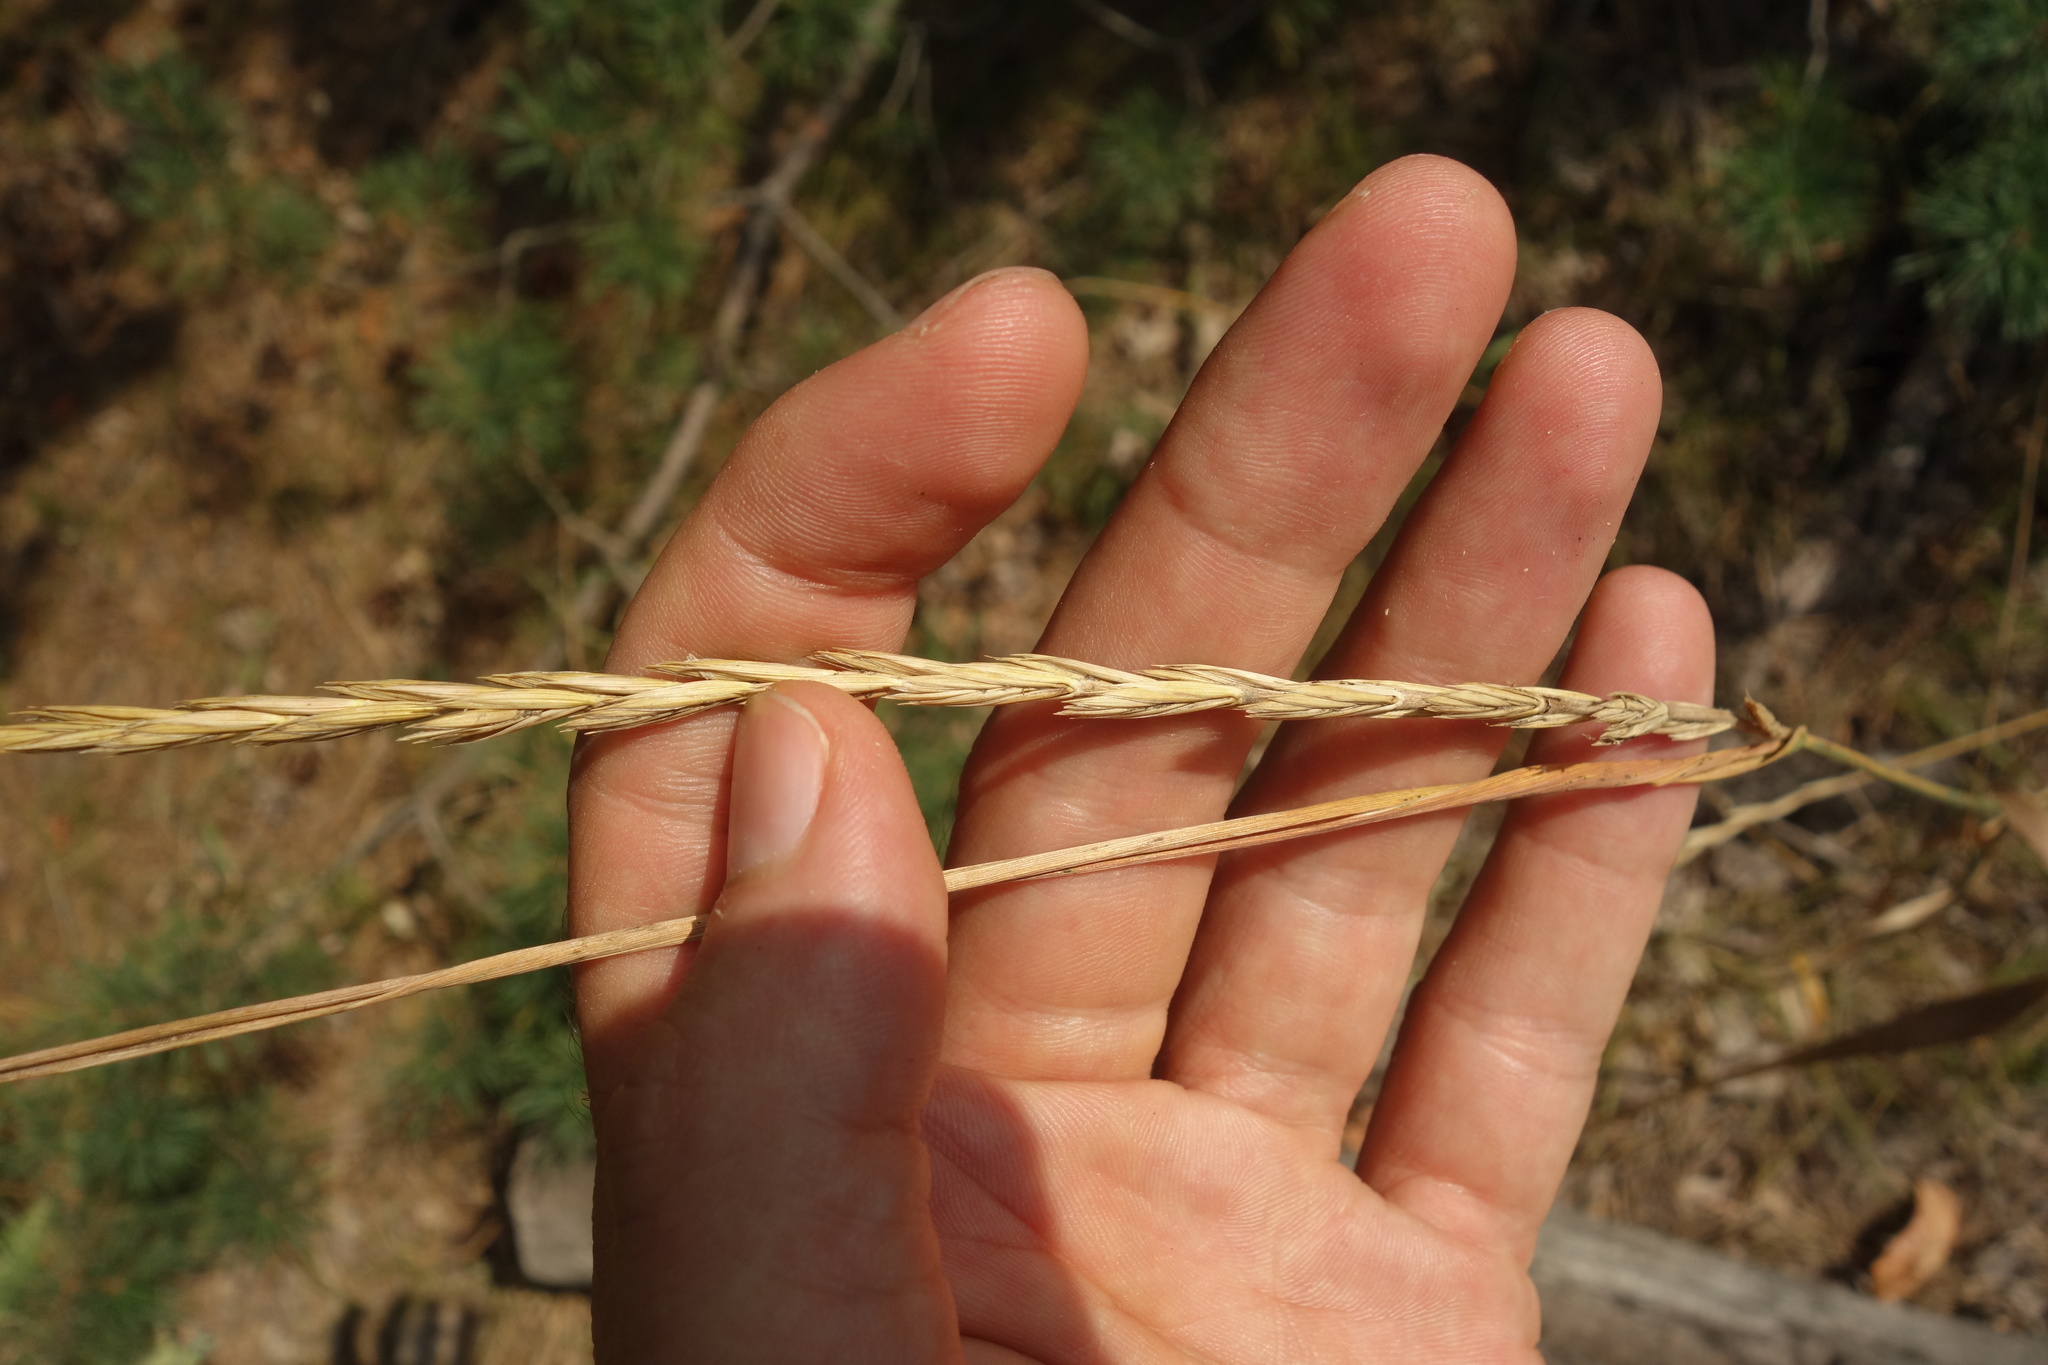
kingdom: Plantae
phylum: Tracheophyta
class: Liliopsida
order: Poales
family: Poaceae
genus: Elymus
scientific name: Elymus repens
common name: Quackgrass
